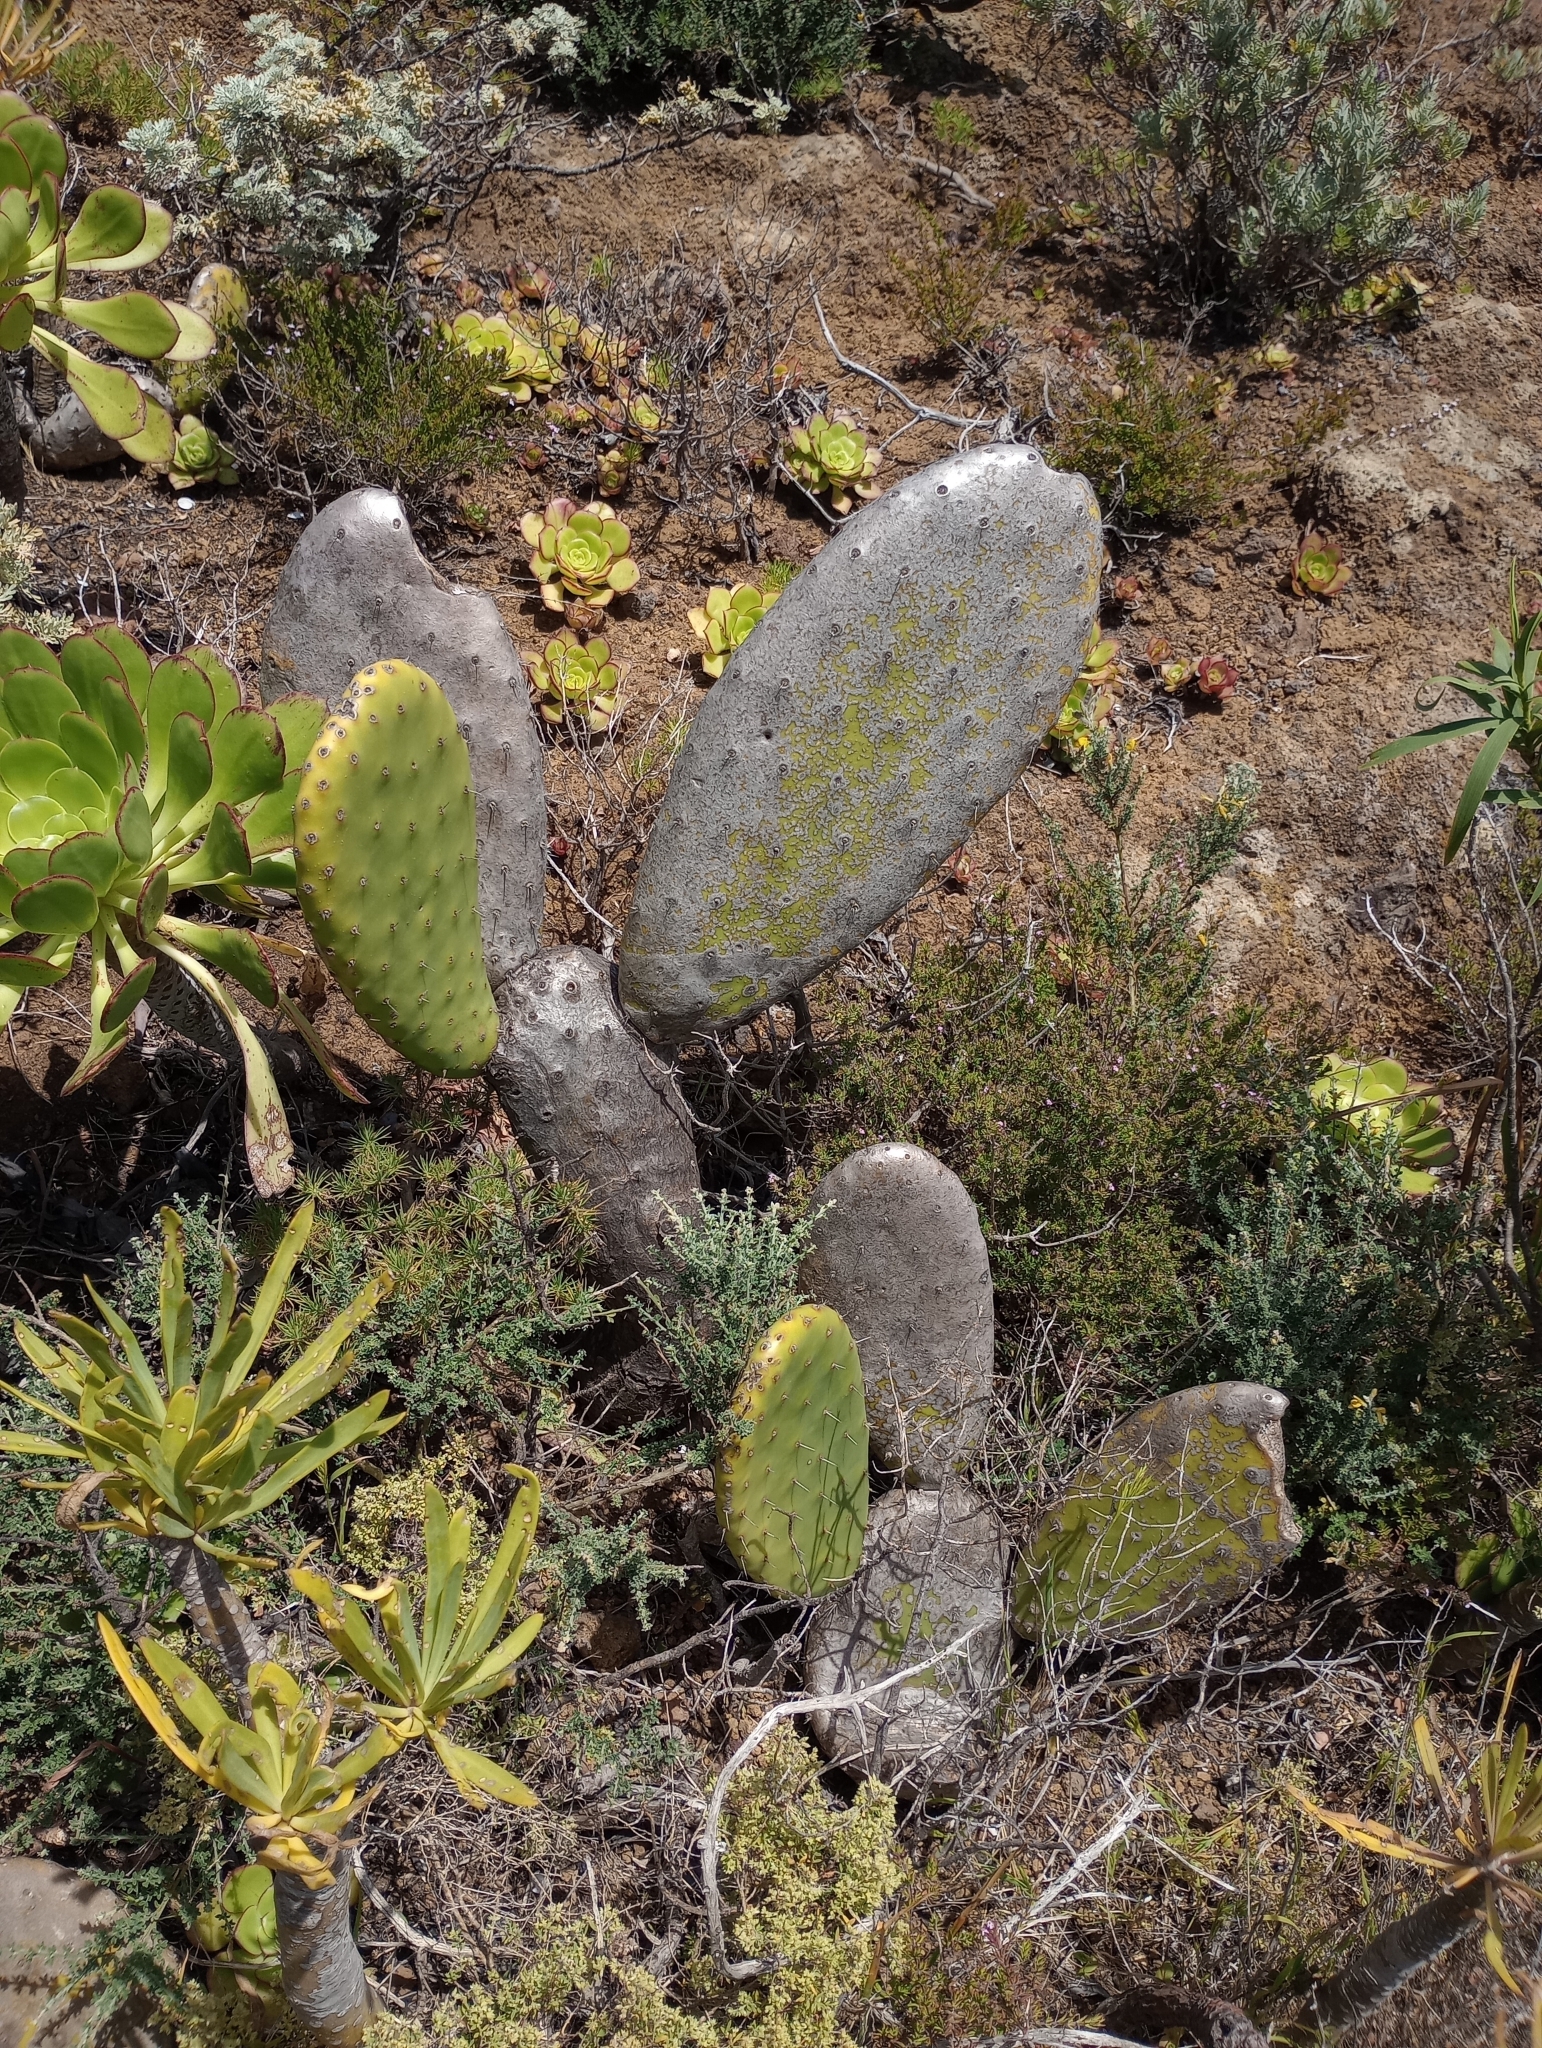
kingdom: Plantae
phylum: Tracheophyta
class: Magnoliopsida
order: Caryophyllales
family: Cactaceae
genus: Opuntia
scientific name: Opuntia ficus-indica
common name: Barbary fig
